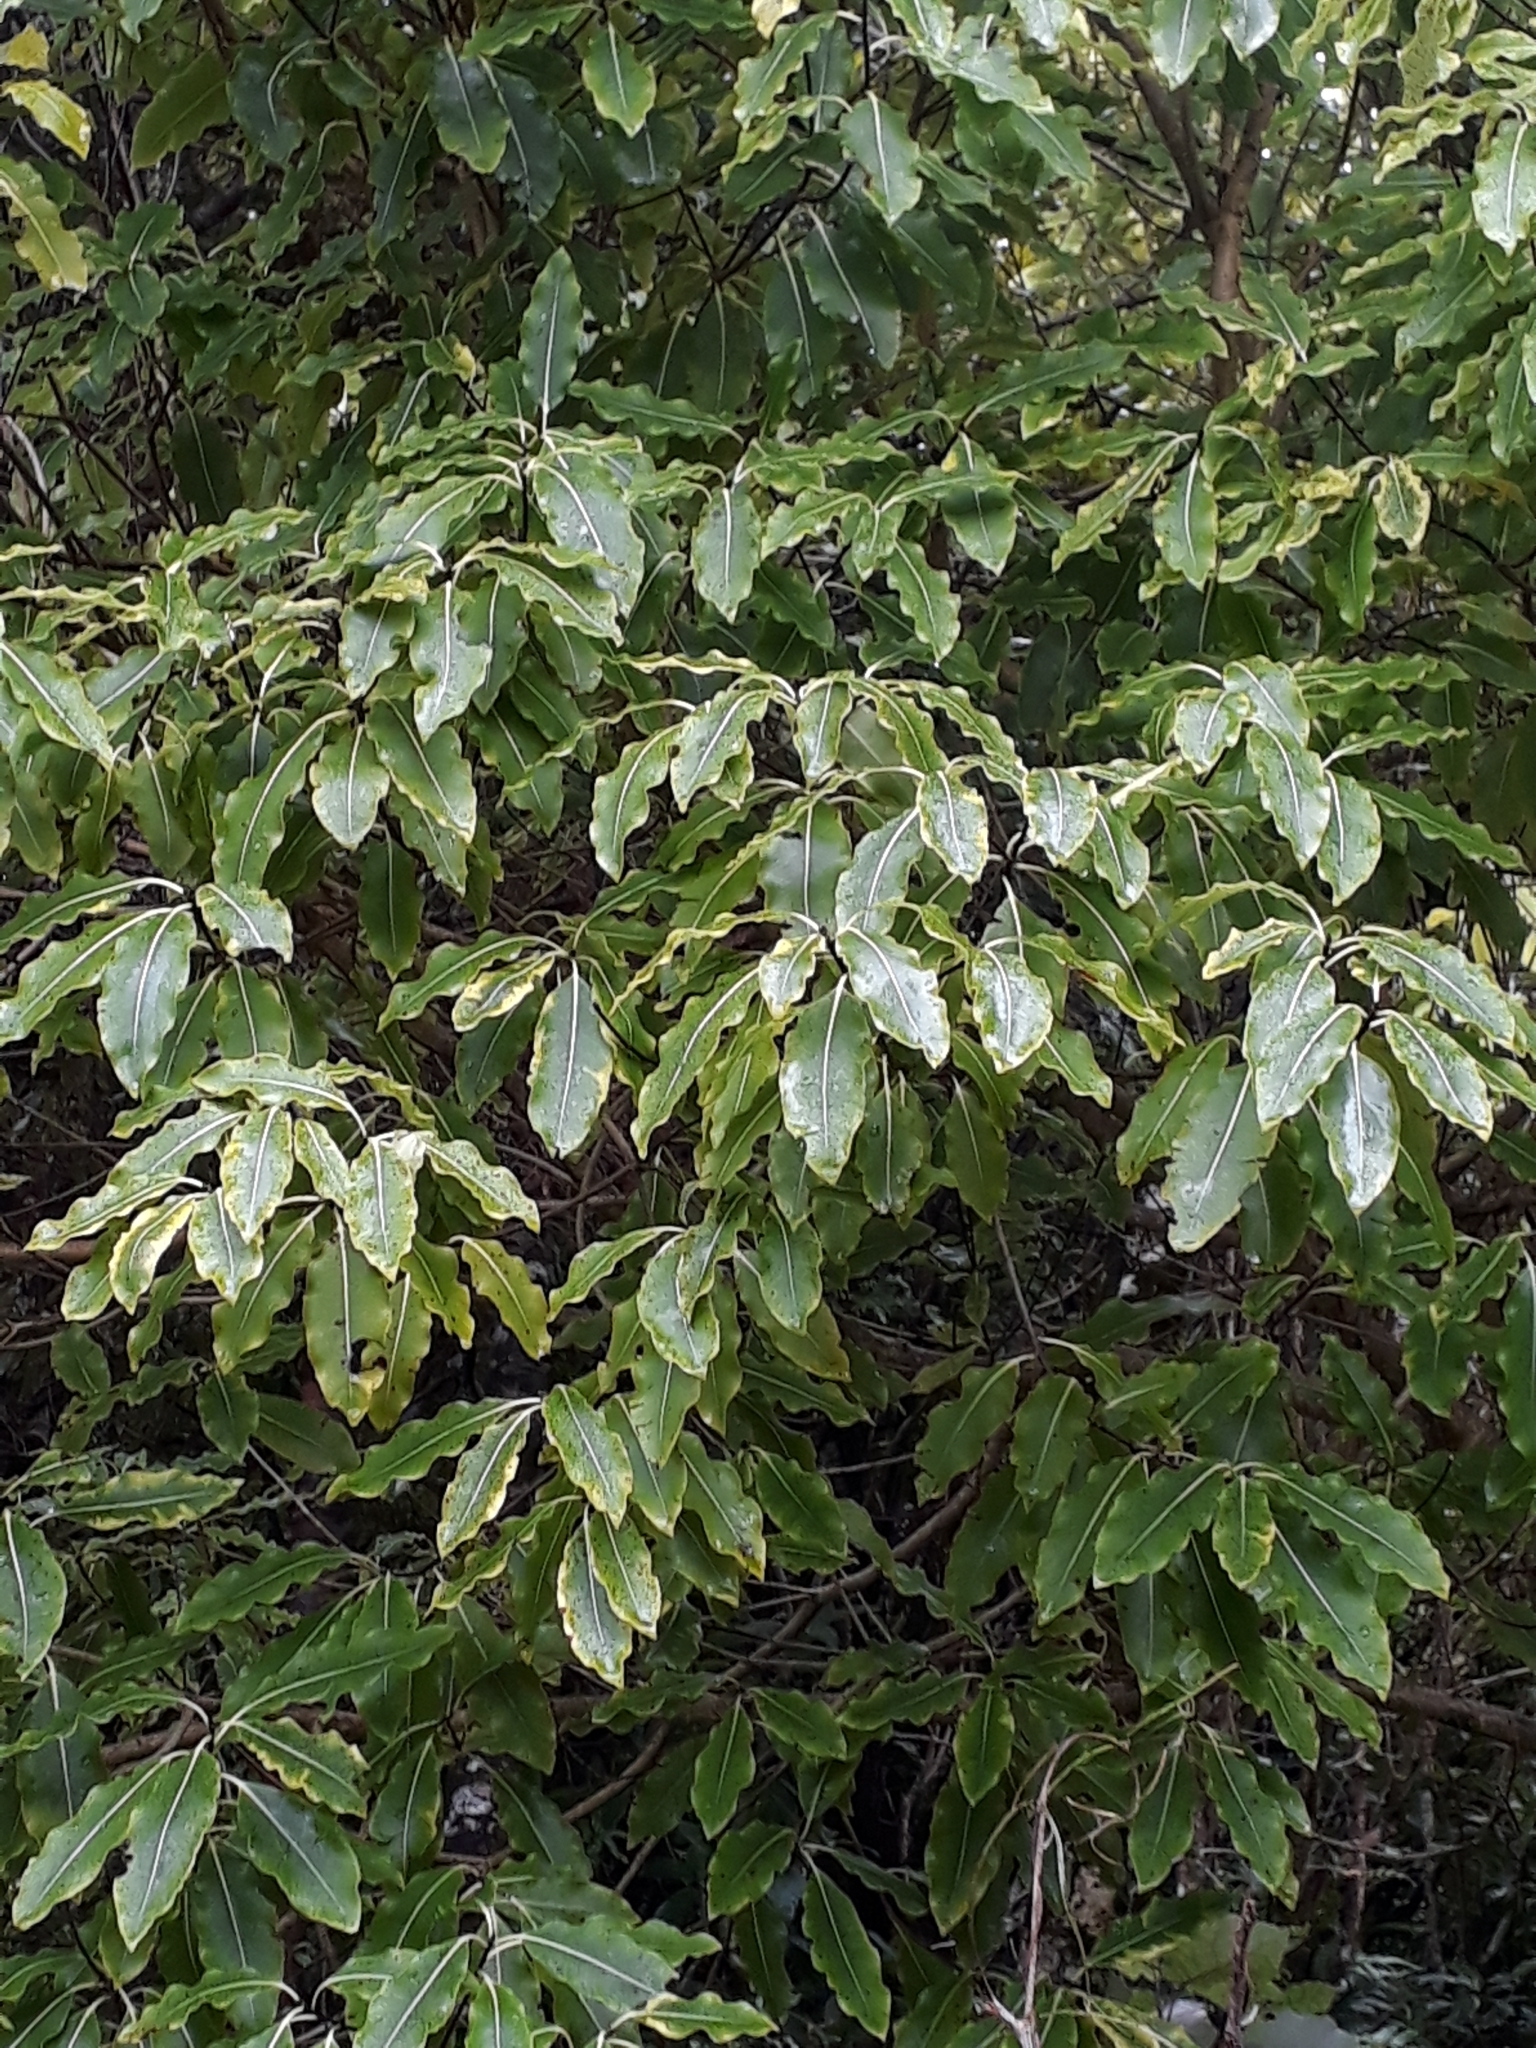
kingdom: Plantae
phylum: Tracheophyta
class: Magnoliopsida
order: Apiales
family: Pittosporaceae
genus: Pittosporum
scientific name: Pittosporum eugenioides
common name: Lemonwood
